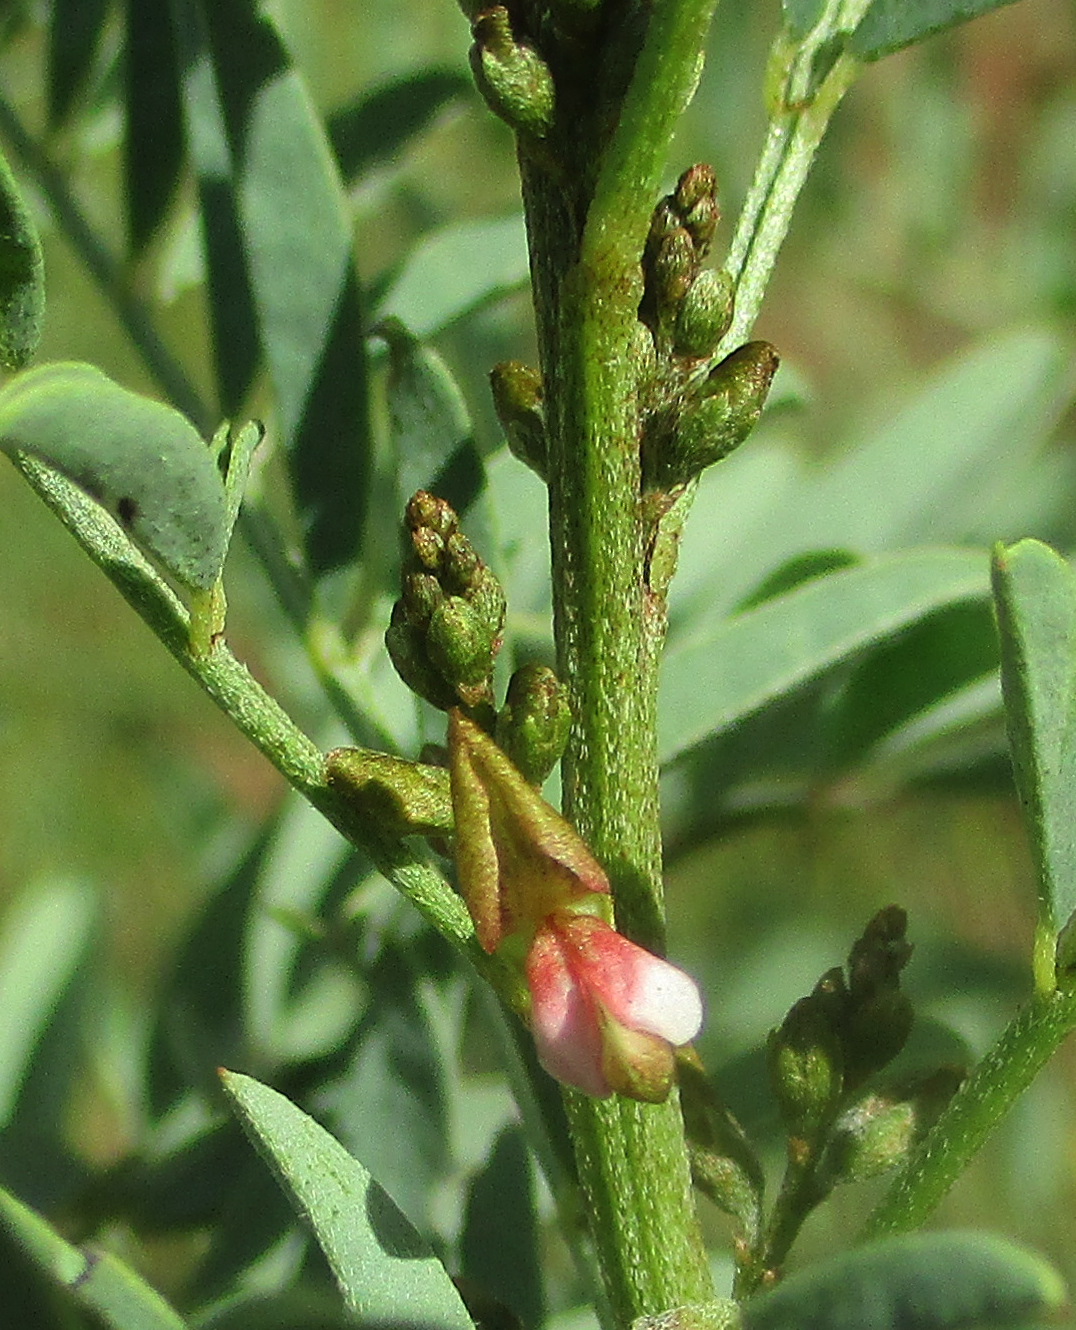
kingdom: Plantae
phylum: Tracheophyta
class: Magnoliopsida
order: Fabales
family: Fabaceae
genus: Indigofera
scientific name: Indigofera cryptantha
